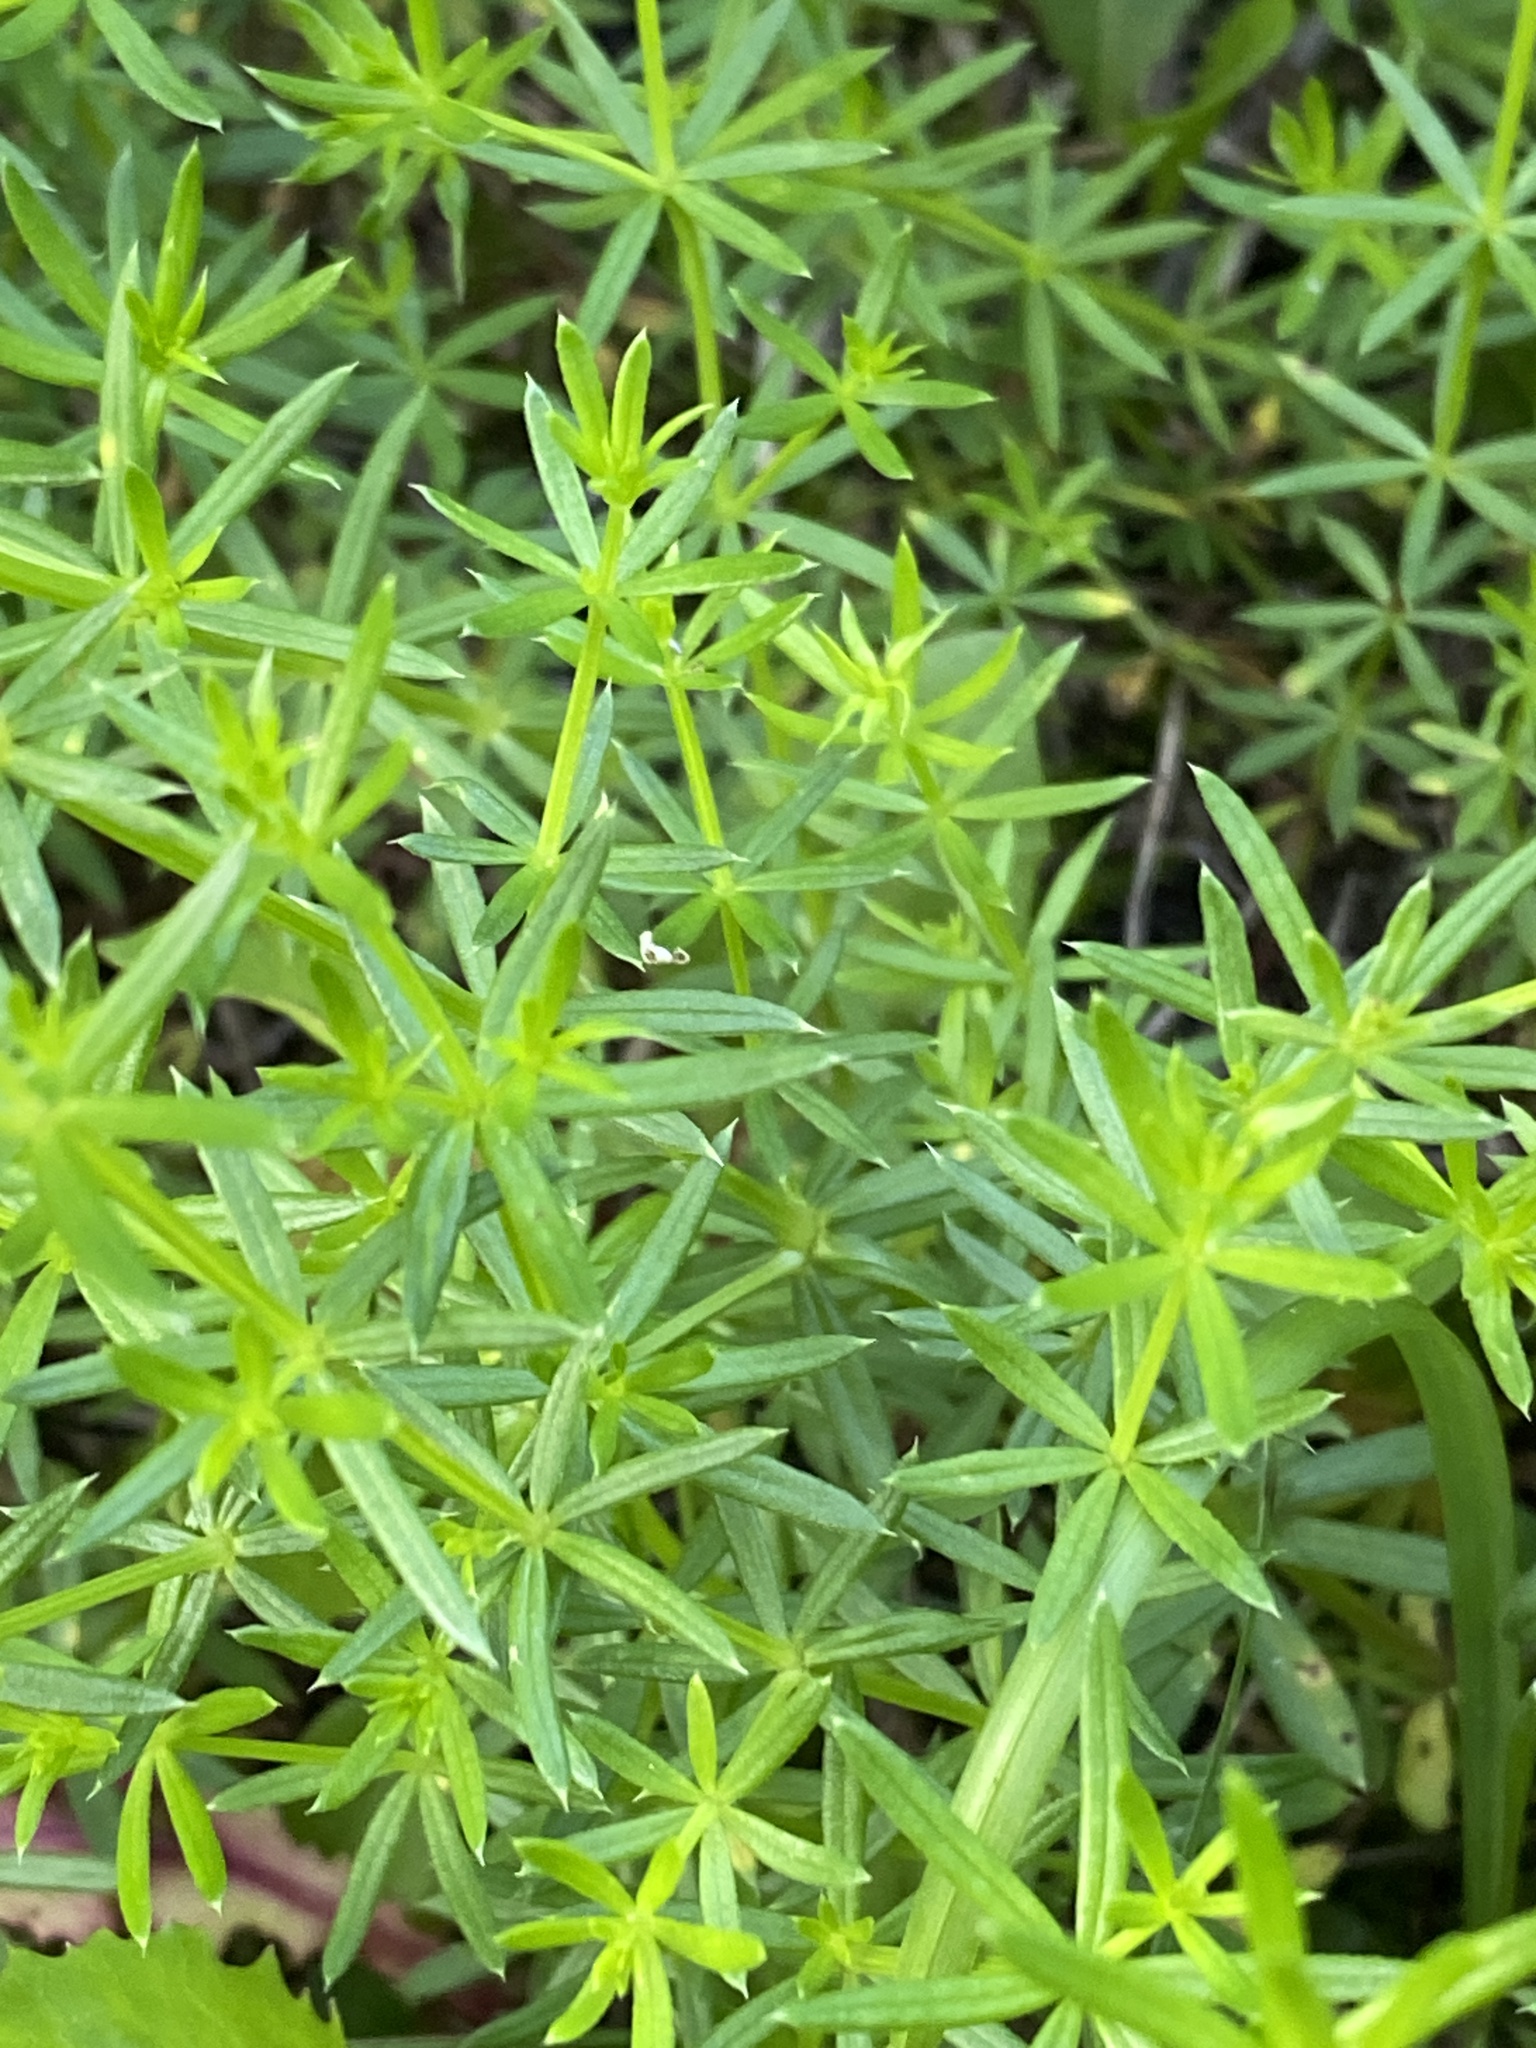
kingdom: Plantae
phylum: Tracheophyta
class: Magnoliopsida
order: Gentianales
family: Rubiaceae
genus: Galium
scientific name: Galium mollugo
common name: Hedge bedstraw
